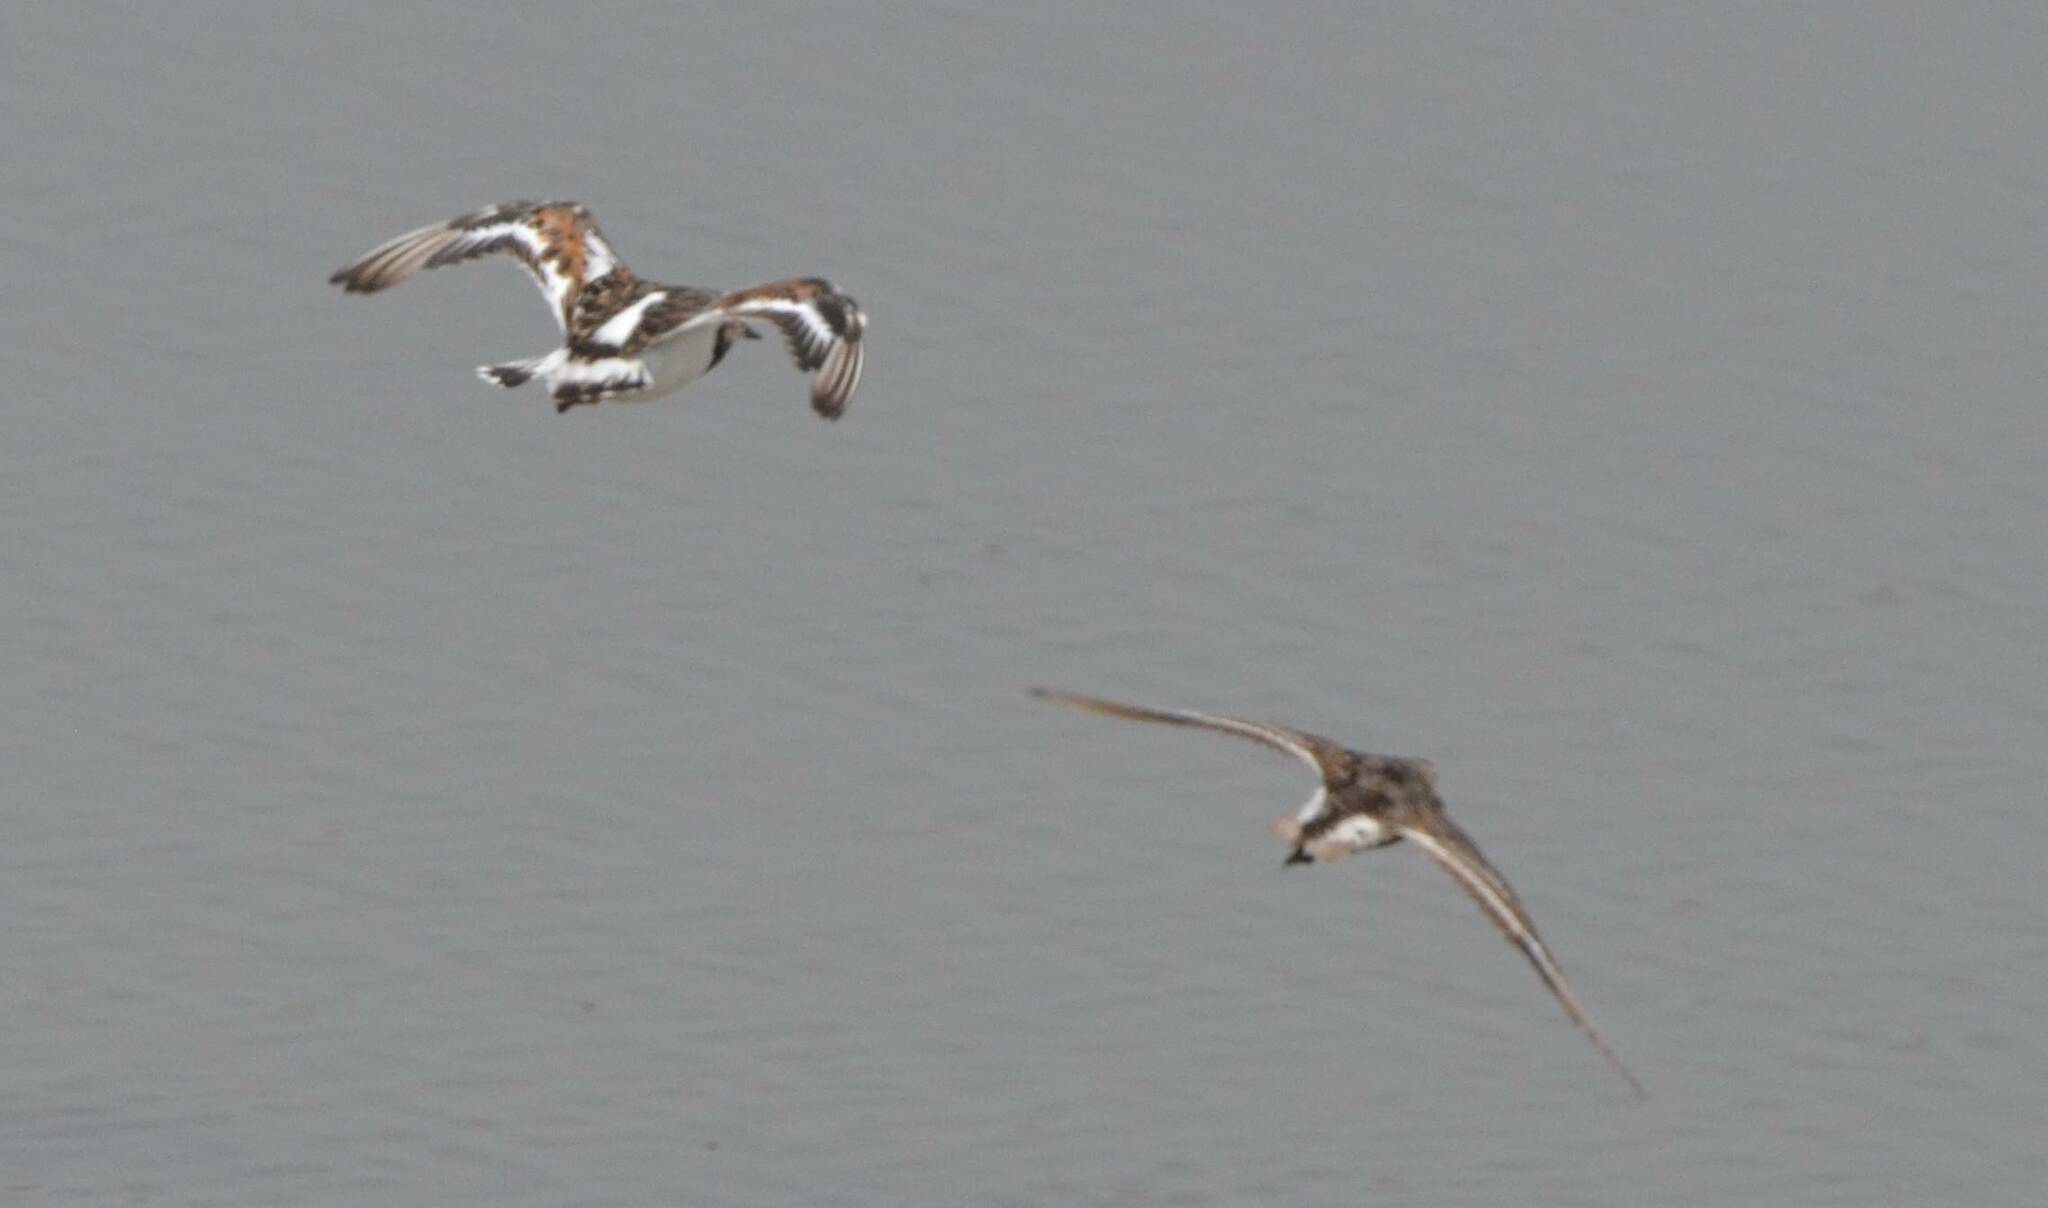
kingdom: Animalia
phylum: Chordata
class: Aves
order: Charadriiformes
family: Scolopacidae
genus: Arenaria
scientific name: Arenaria interpres
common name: Ruddy turnstone
